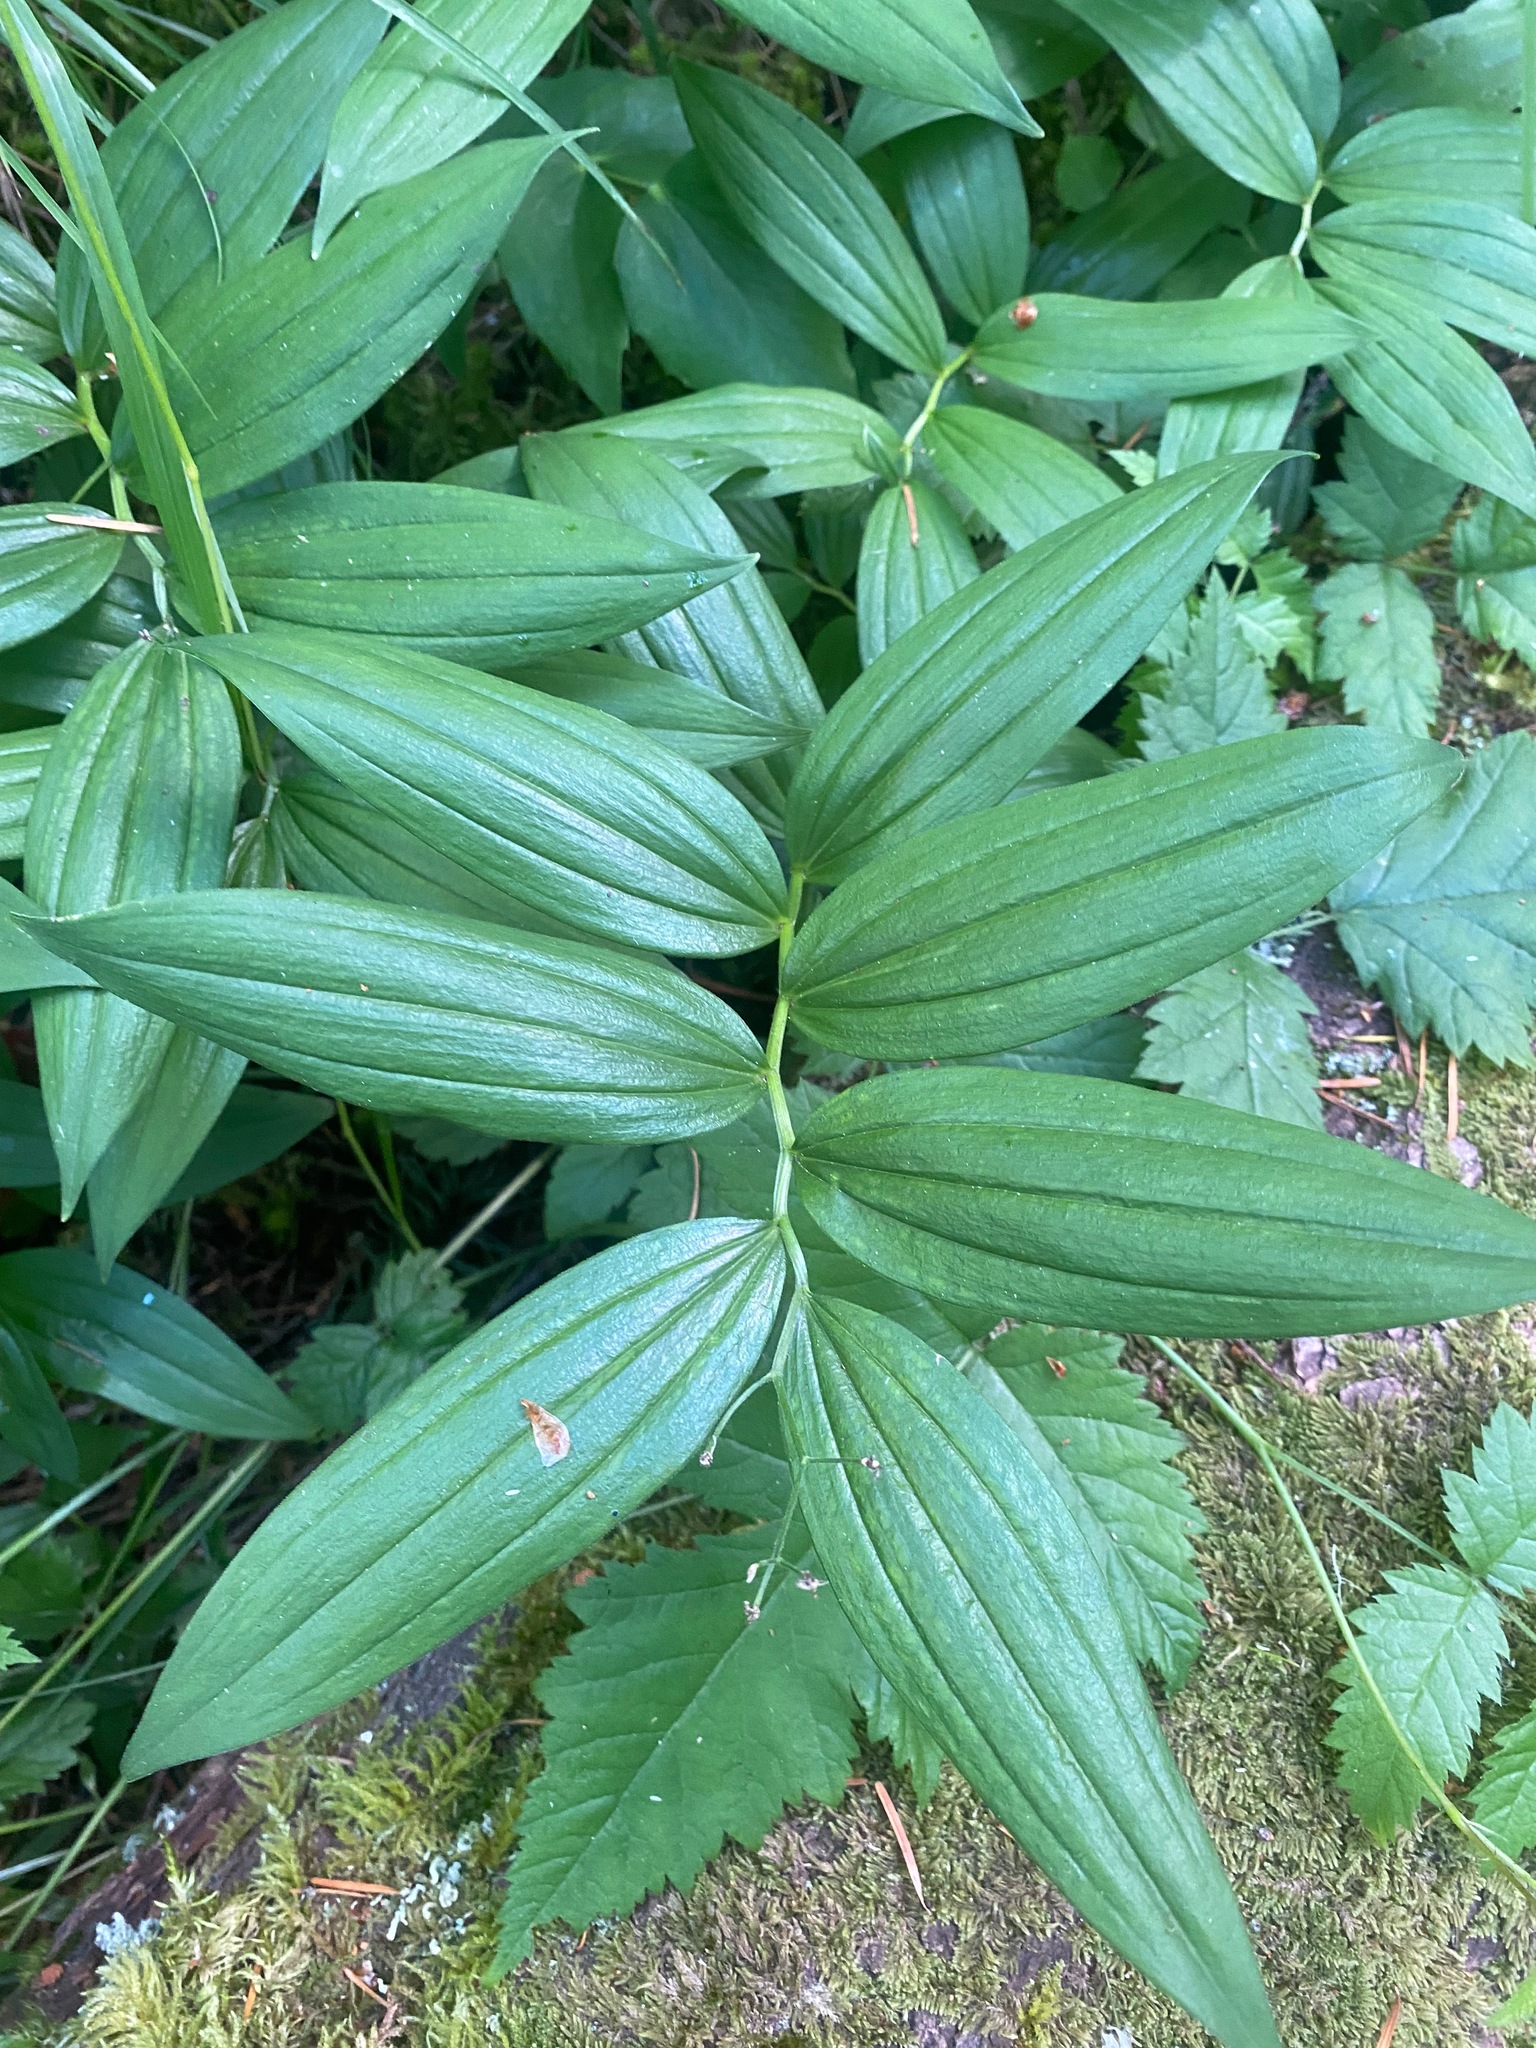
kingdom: Plantae
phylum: Tracheophyta
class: Liliopsida
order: Asparagales
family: Asparagaceae
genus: Maianthemum
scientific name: Maianthemum stellatum
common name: Little false solomon's seal
